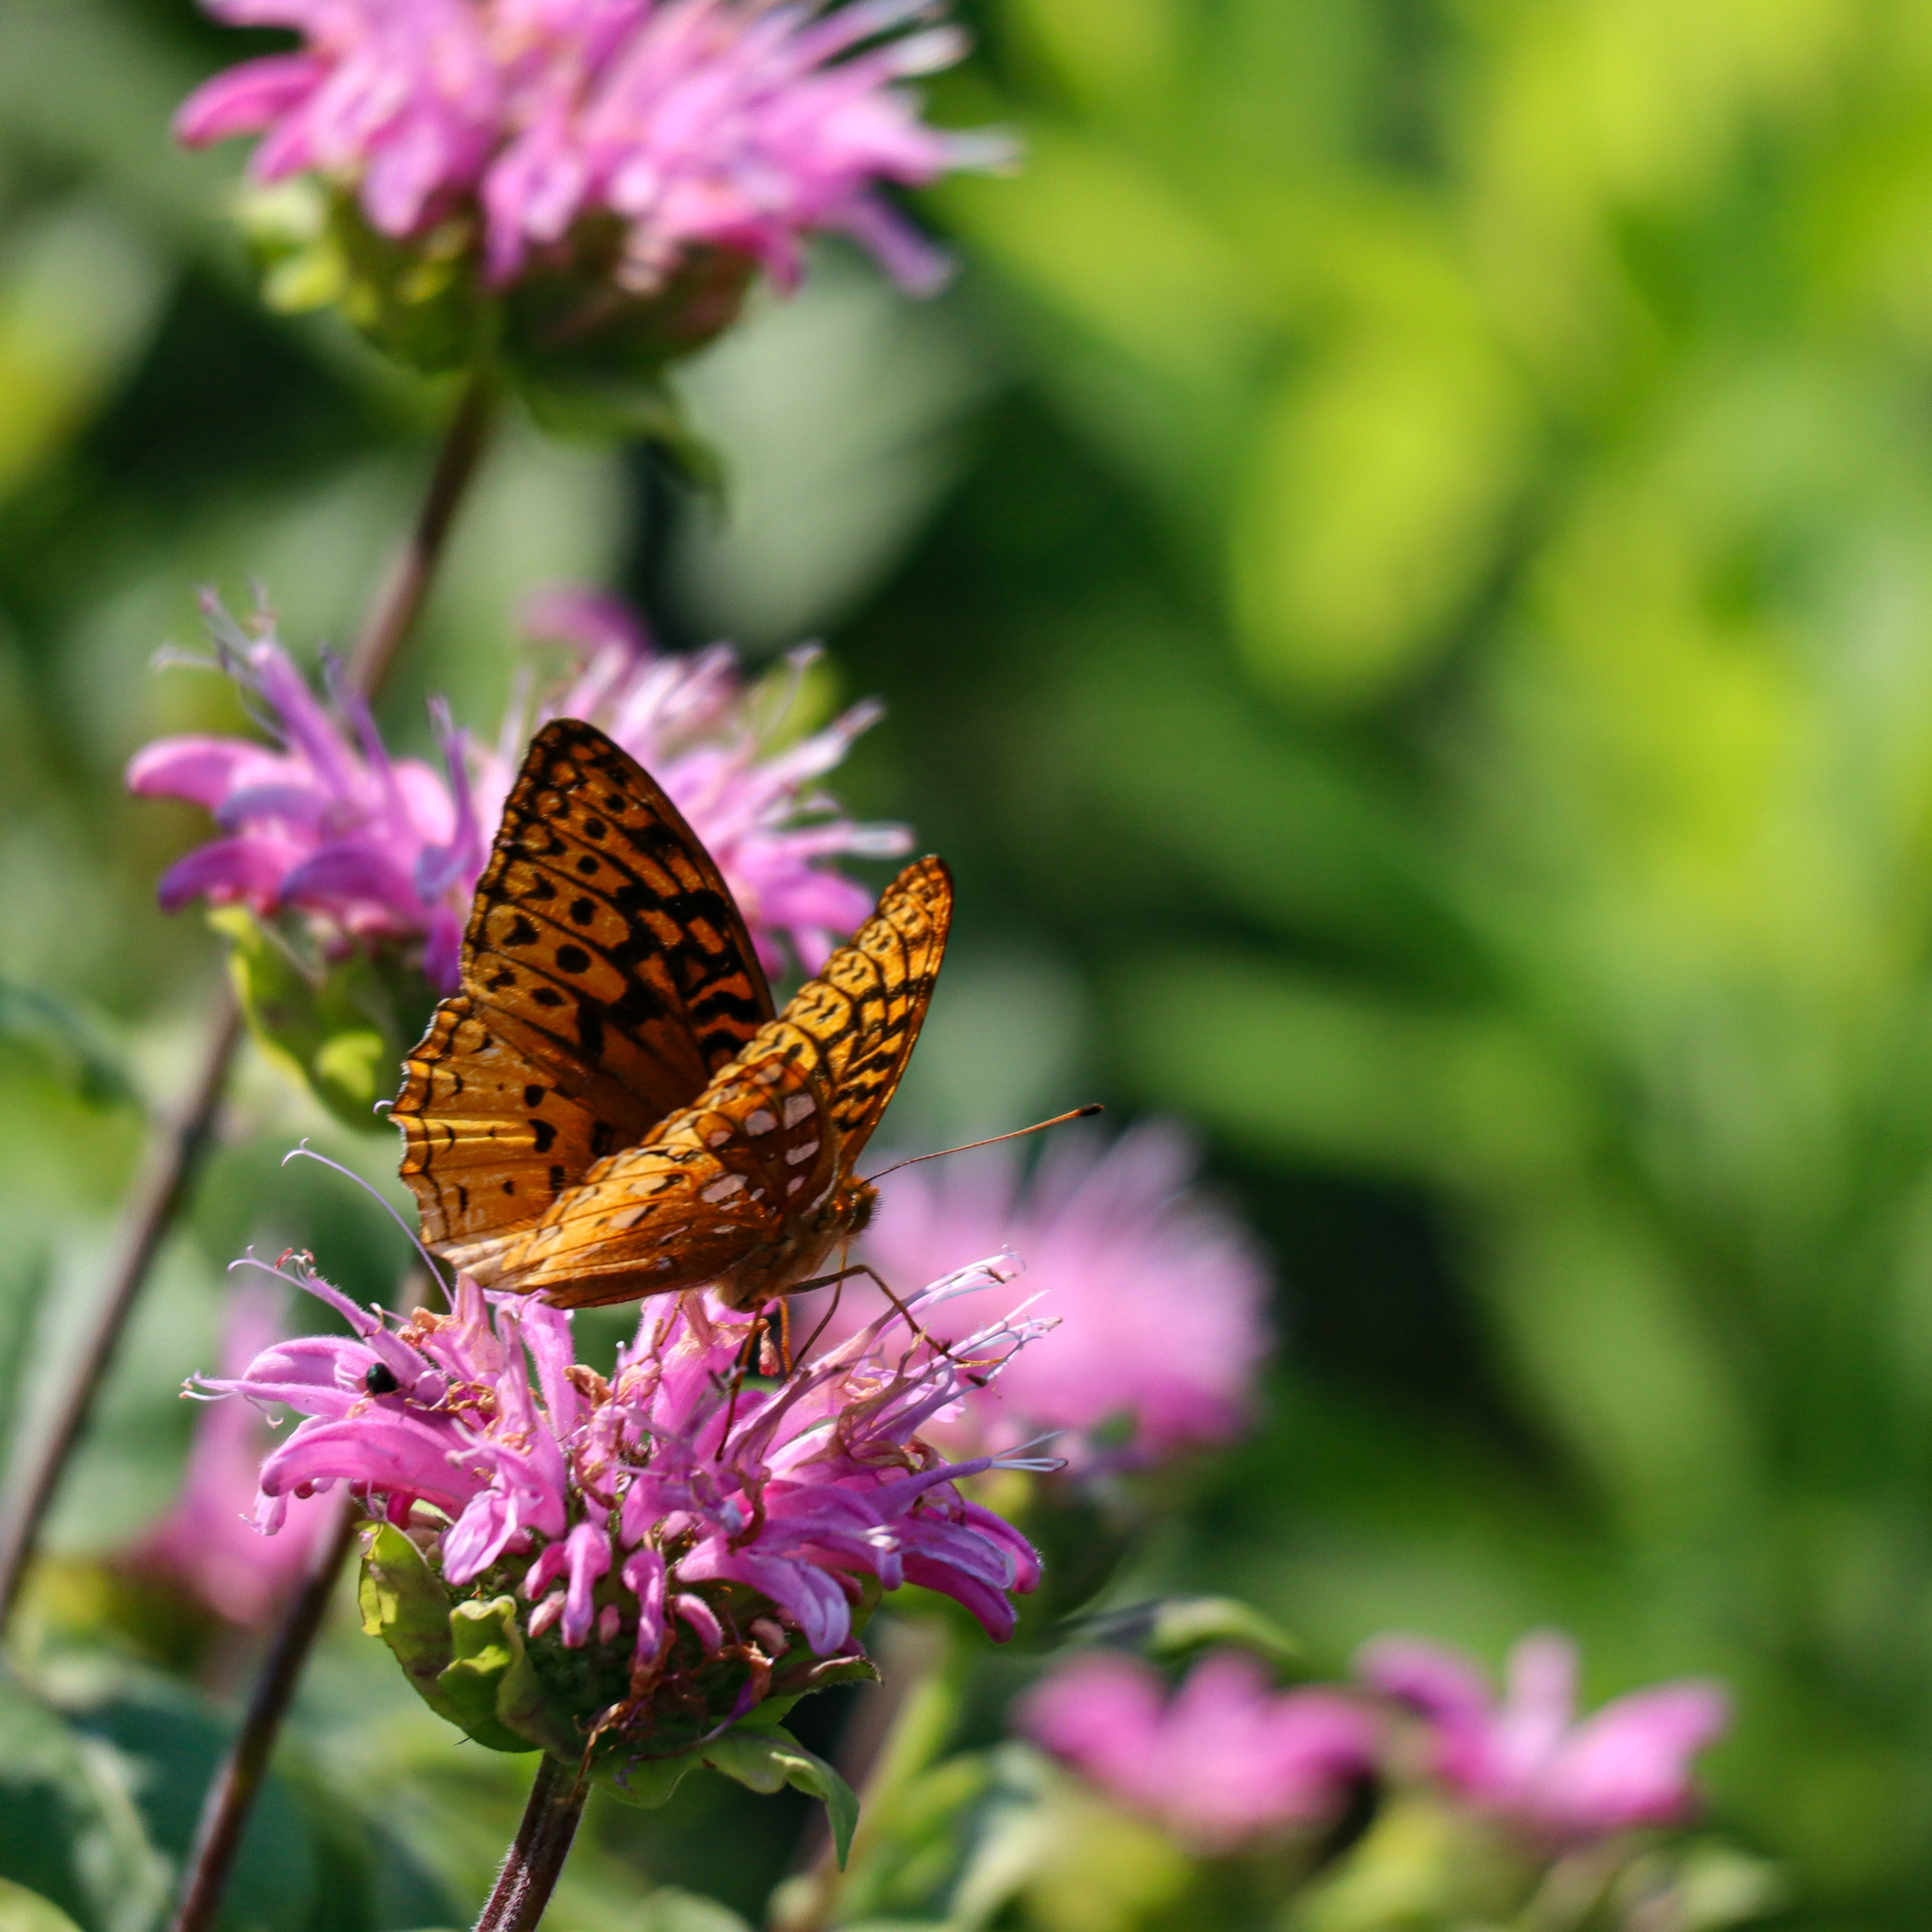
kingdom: Animalia
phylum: Arthropoda
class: Insecta
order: Lepidoptera
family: Nymphalidae
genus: Speyeria
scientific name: Speyeria cybele
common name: Great spangled fritillary
